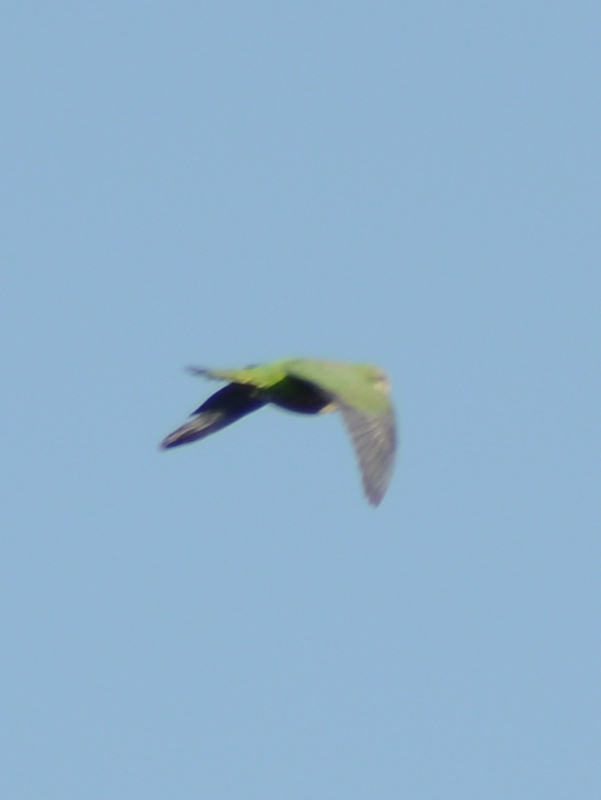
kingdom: Animalia
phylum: Chordata
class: Aves
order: Psittaciformes
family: Psittacidae
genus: Myiopsitta
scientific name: Myiopsitta monachus
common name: Monk parakeet
